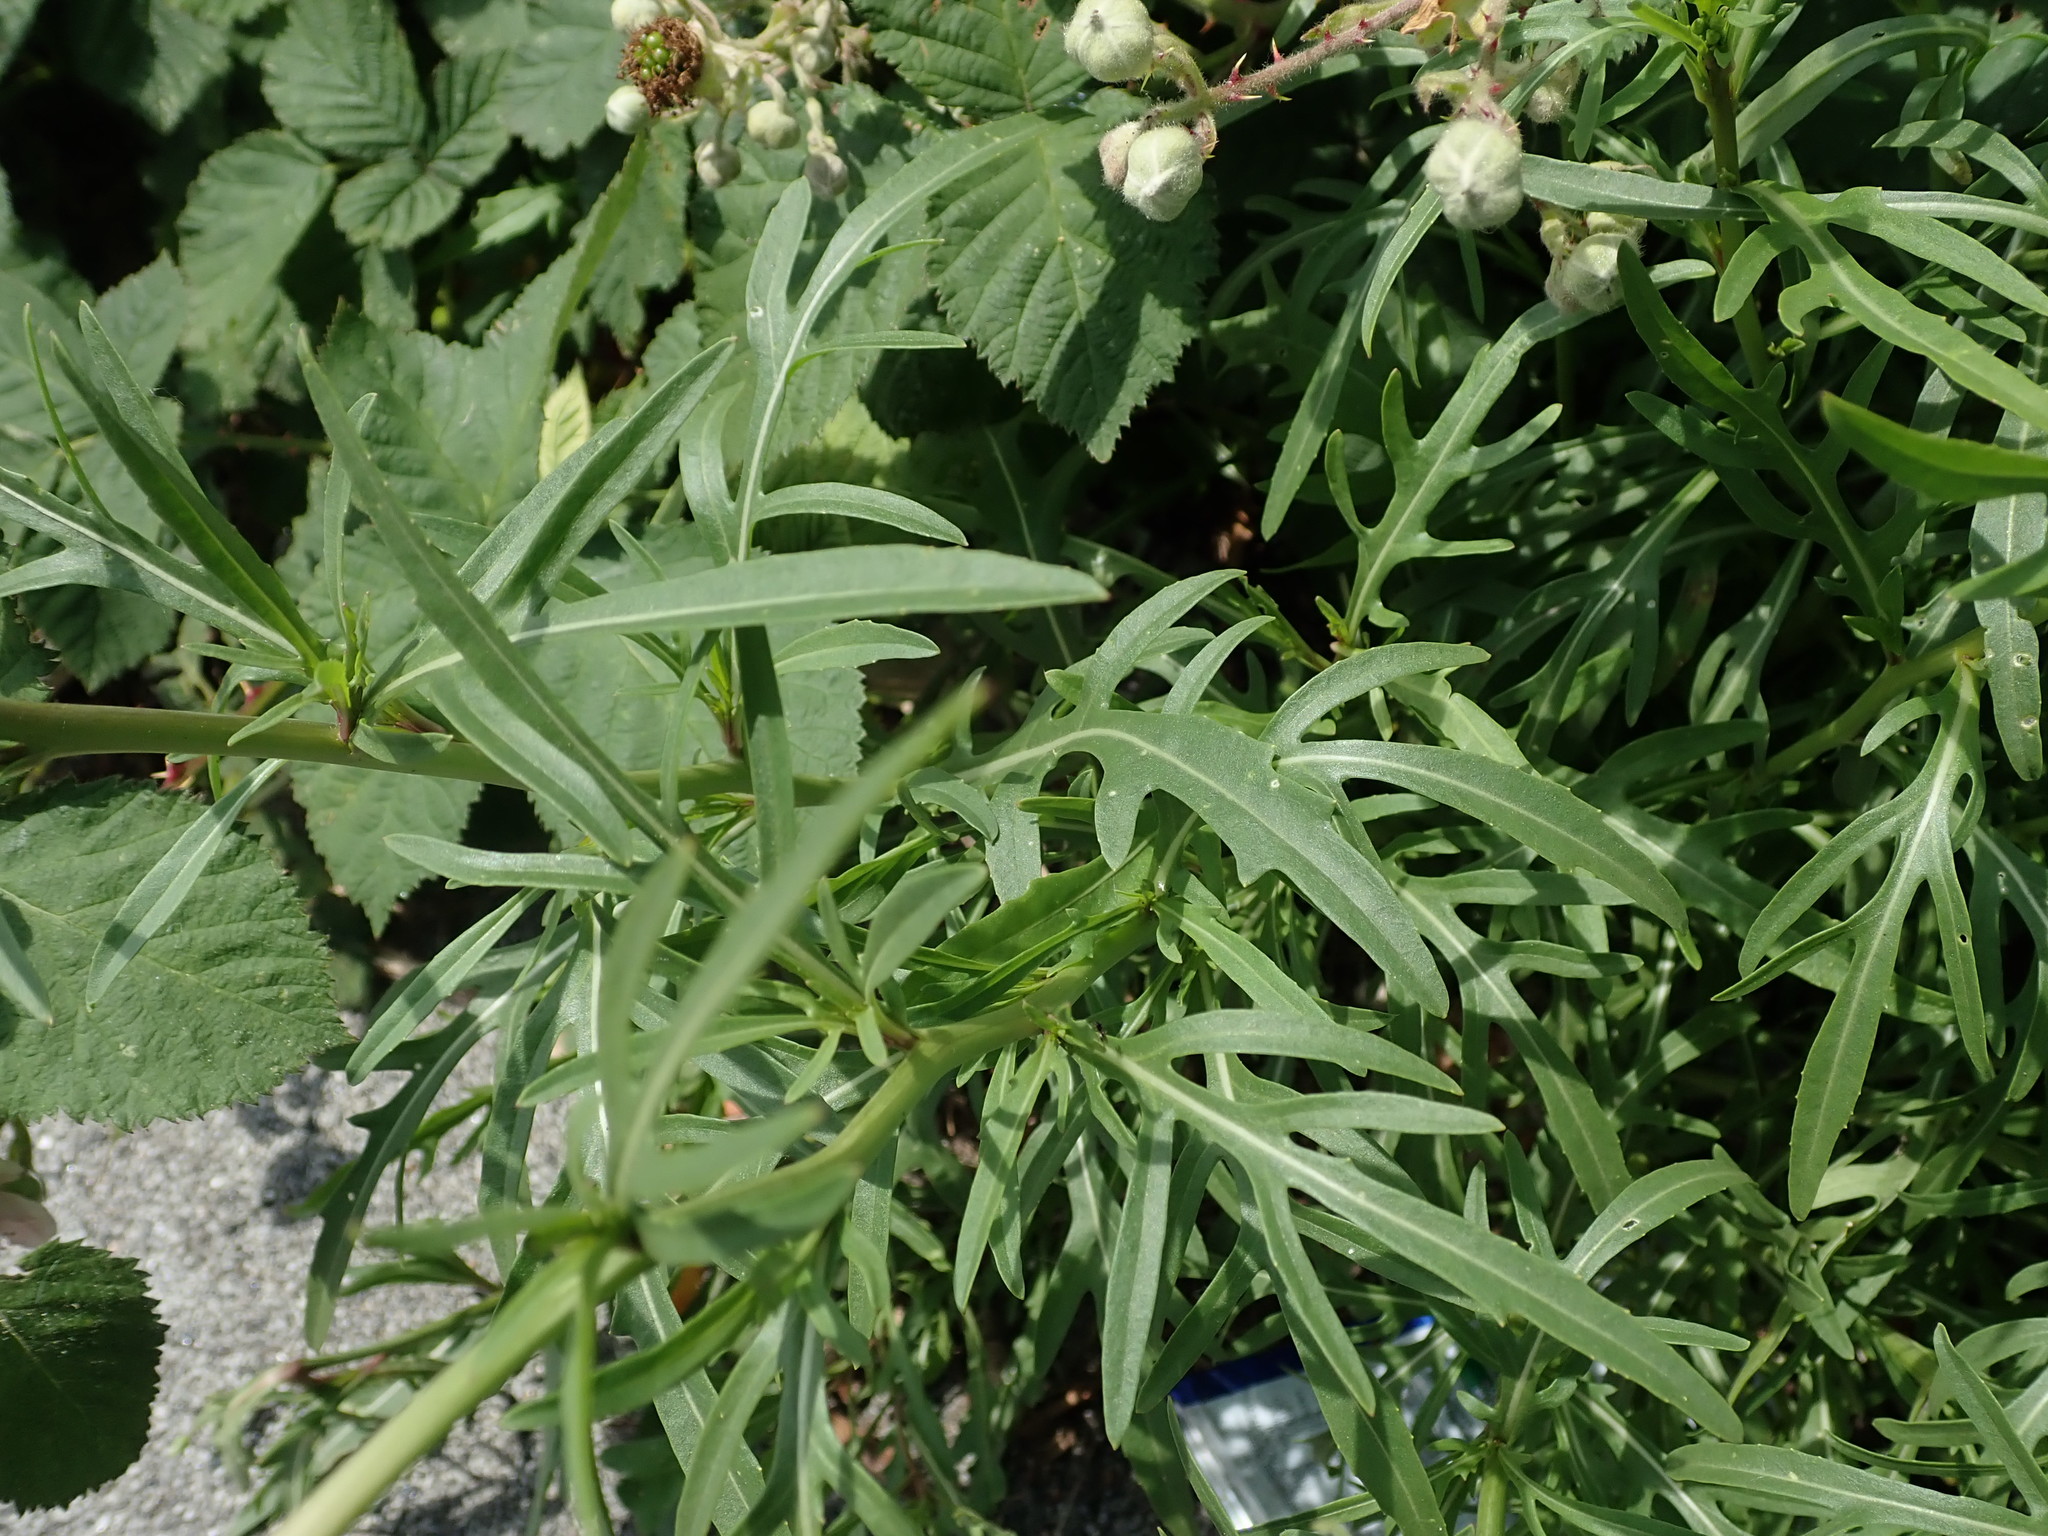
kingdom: Plantae
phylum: Tracheophyta
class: Magnoliopsida
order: Brassicales
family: Brassicaceae
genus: Diplotaxis
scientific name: Diplotaxis tenuifolia
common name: Perennial wall-rocket
